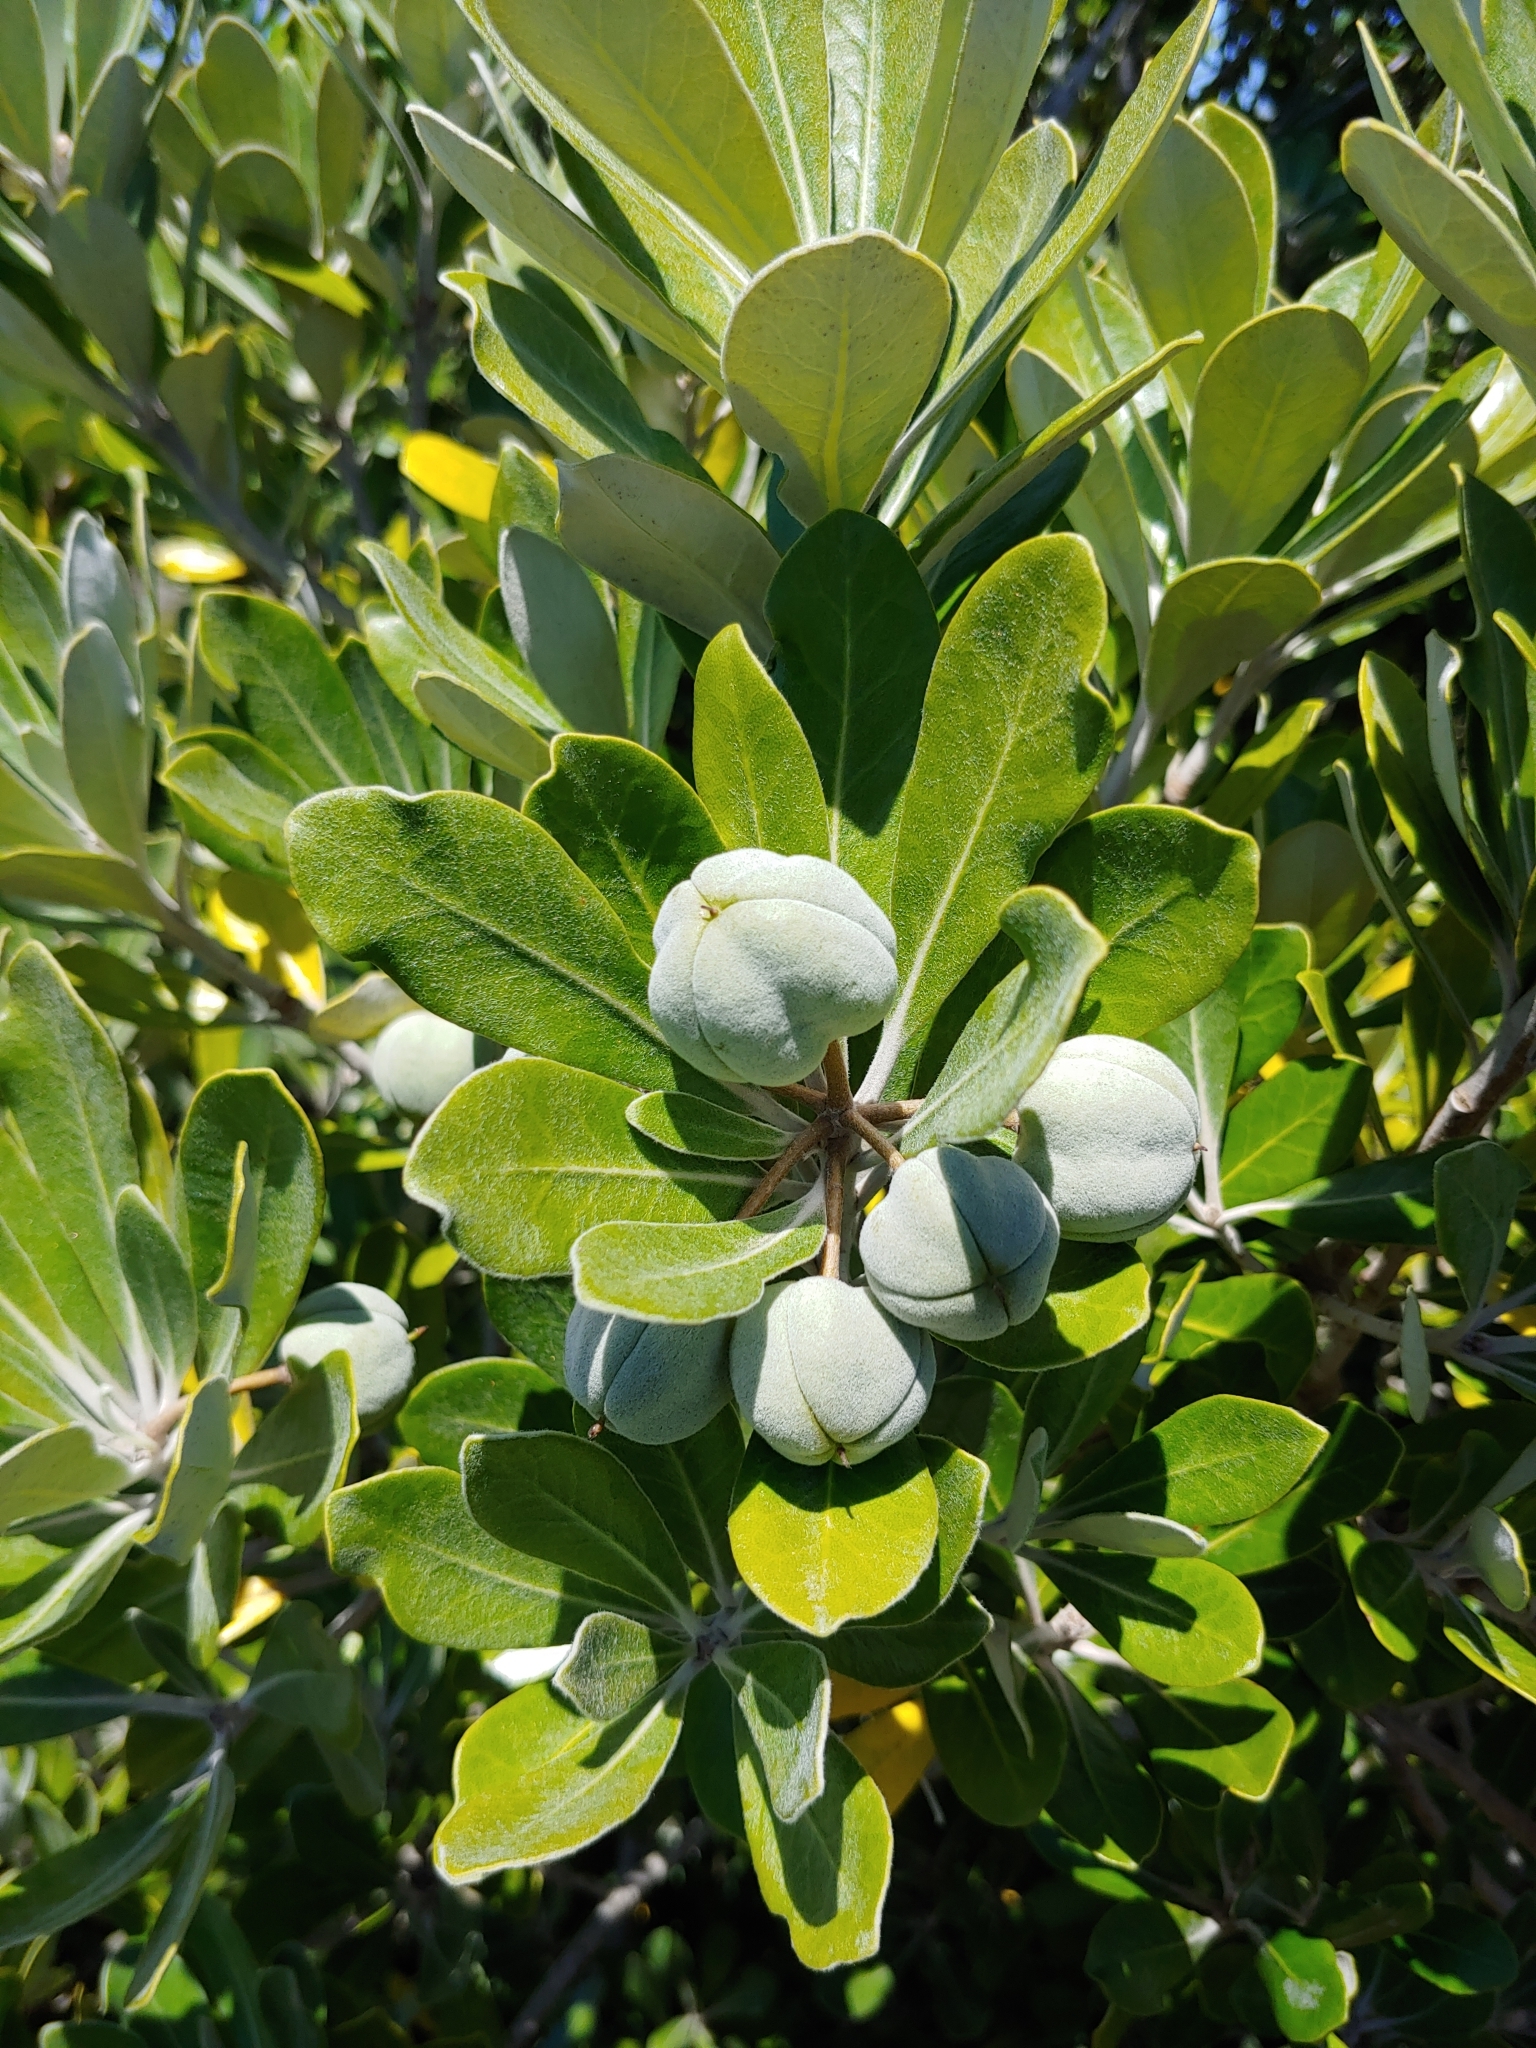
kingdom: Plantae
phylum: Tracheophyta
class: Magnoliopsida
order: Apiales
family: Pittosporaceae
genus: Pittosporum
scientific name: Pittosporum
